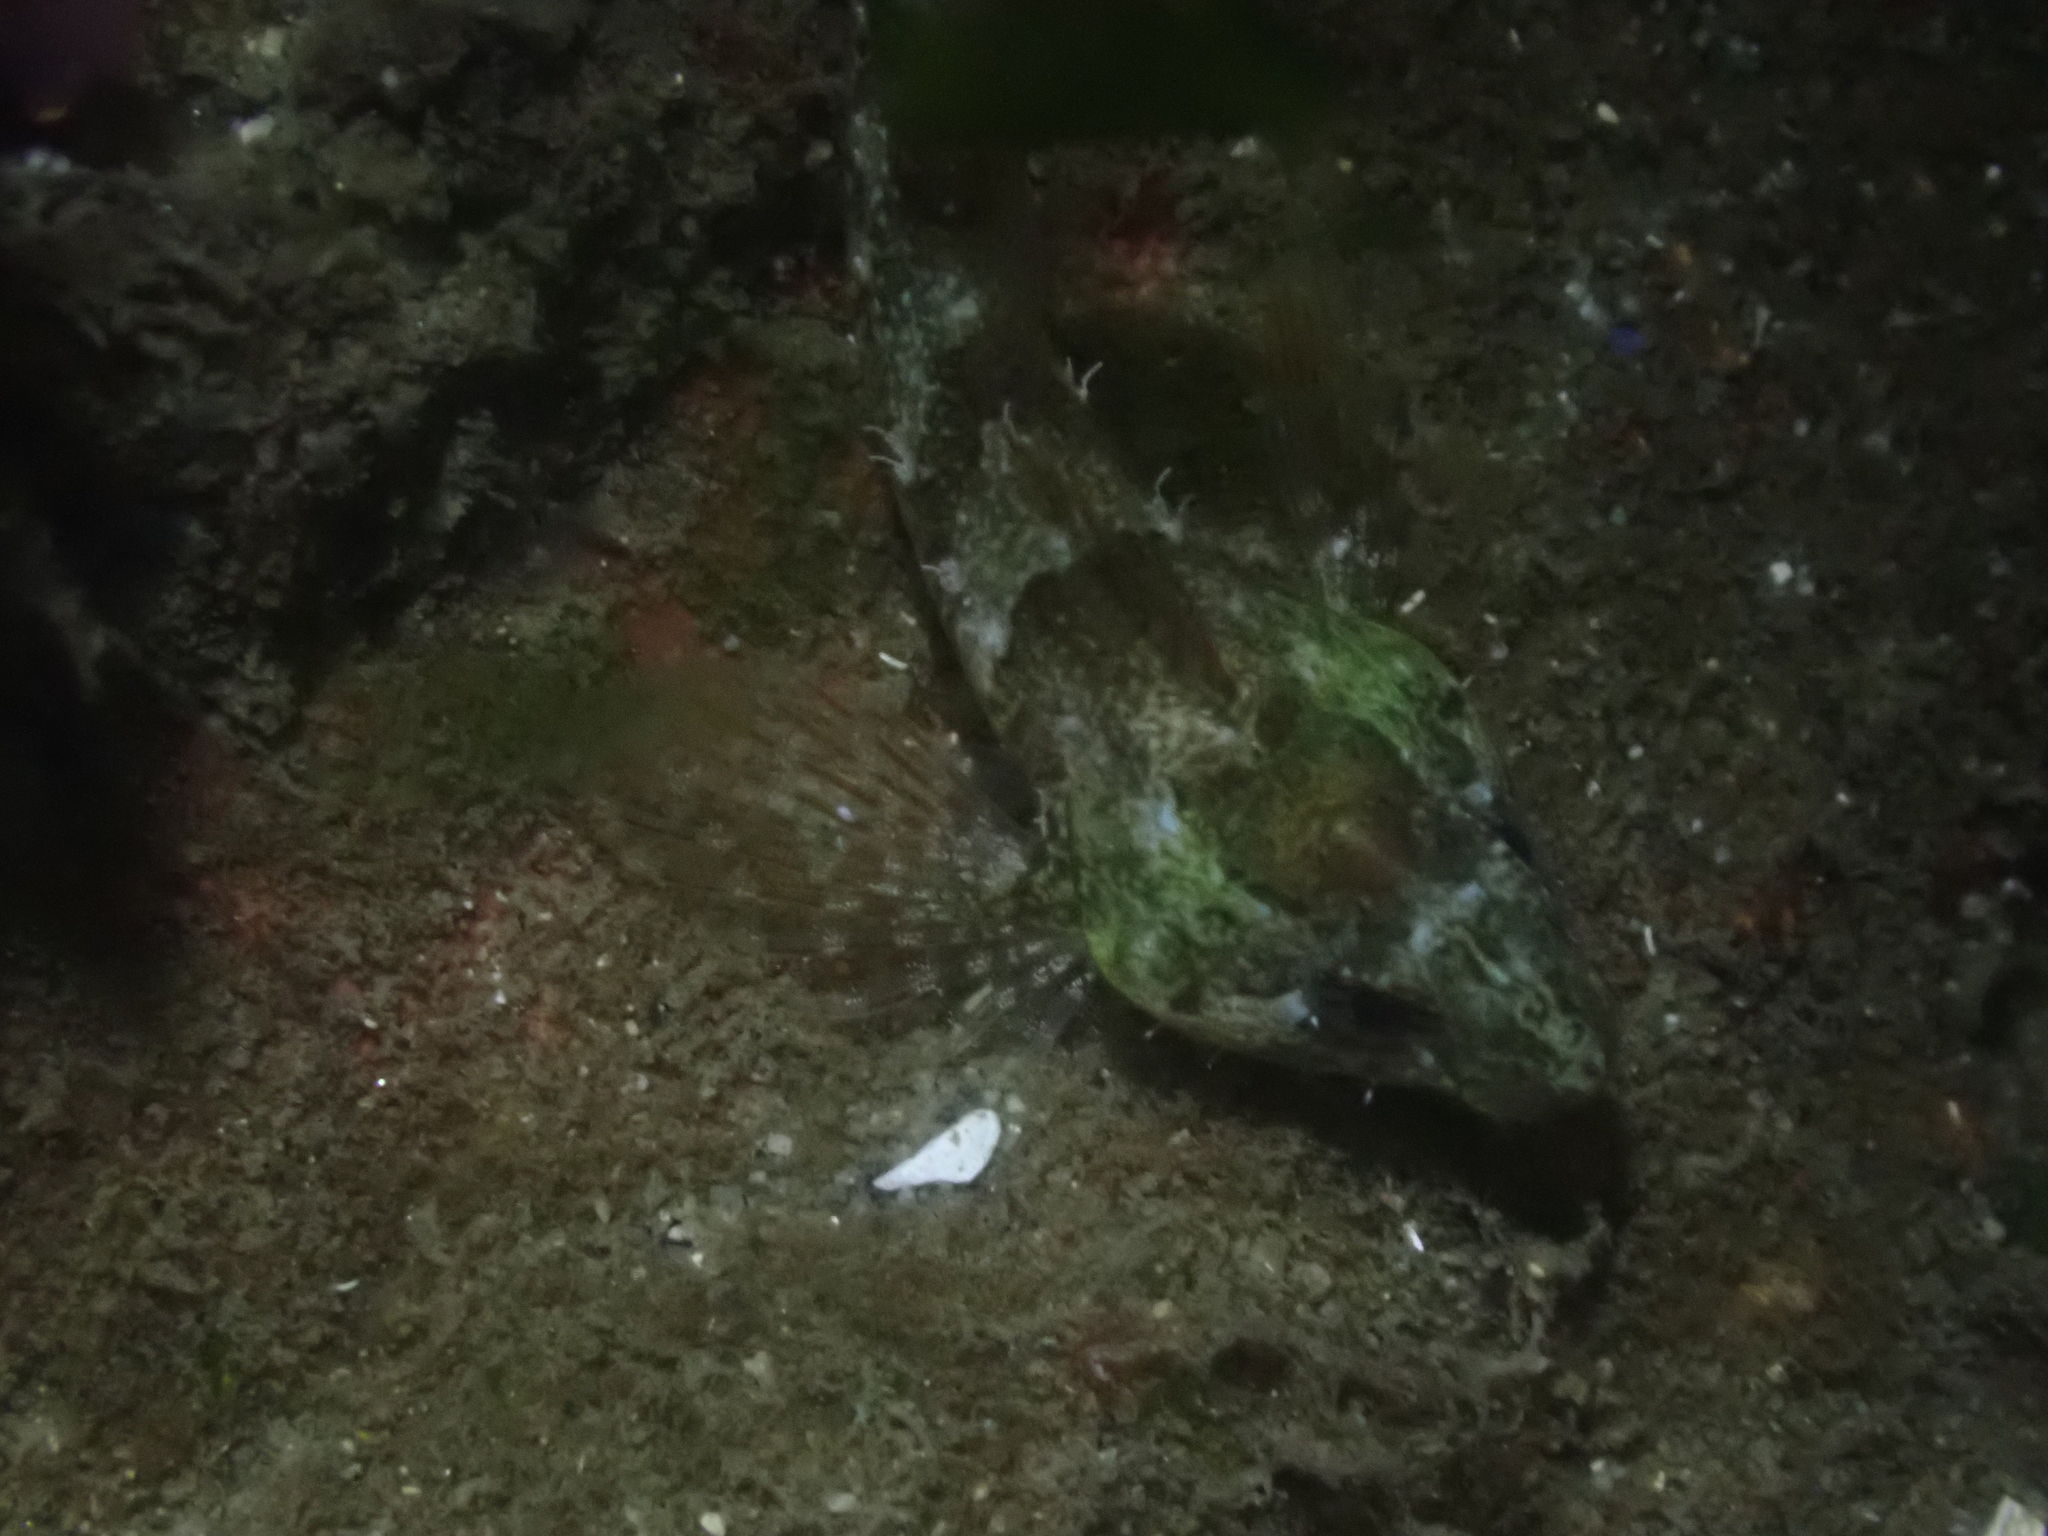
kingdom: Animalia
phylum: Chordata
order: Scorpaeniformes
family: Cottidae
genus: Oligocottus
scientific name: Oligocottus maculosus
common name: Tidepool sculpin
